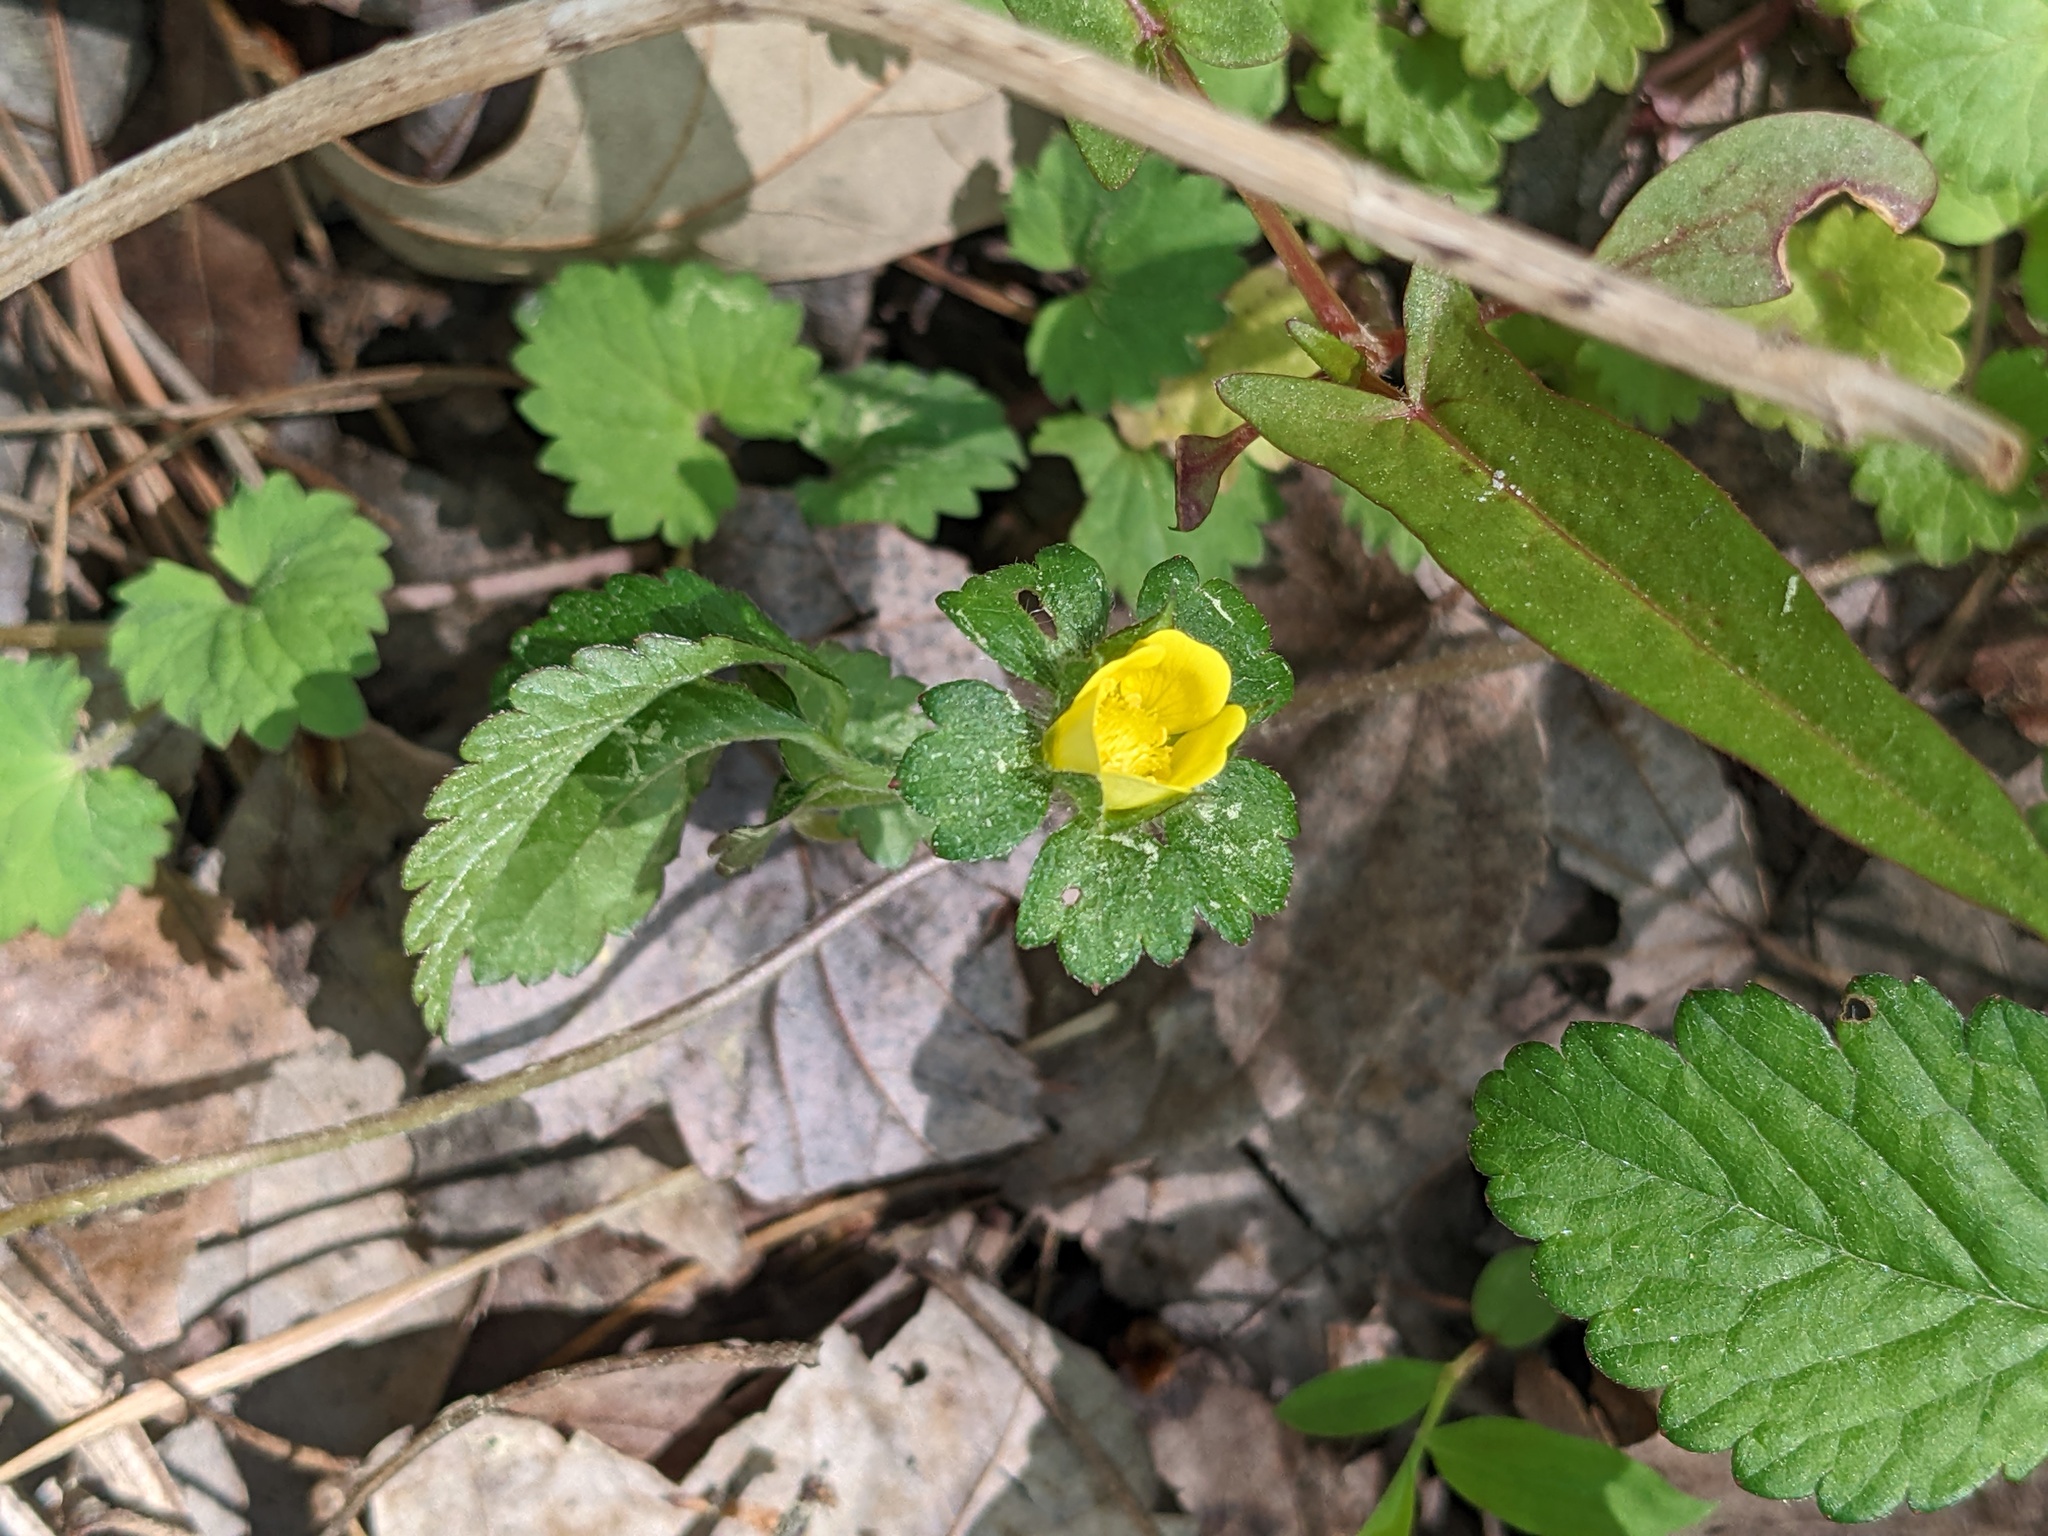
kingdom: Plantae
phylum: Tracheophyta
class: Magnoliopsida
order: Rosales
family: Rosaceae
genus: Potentilla
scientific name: Potentilla indica
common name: Yellow-flowered strawberry
